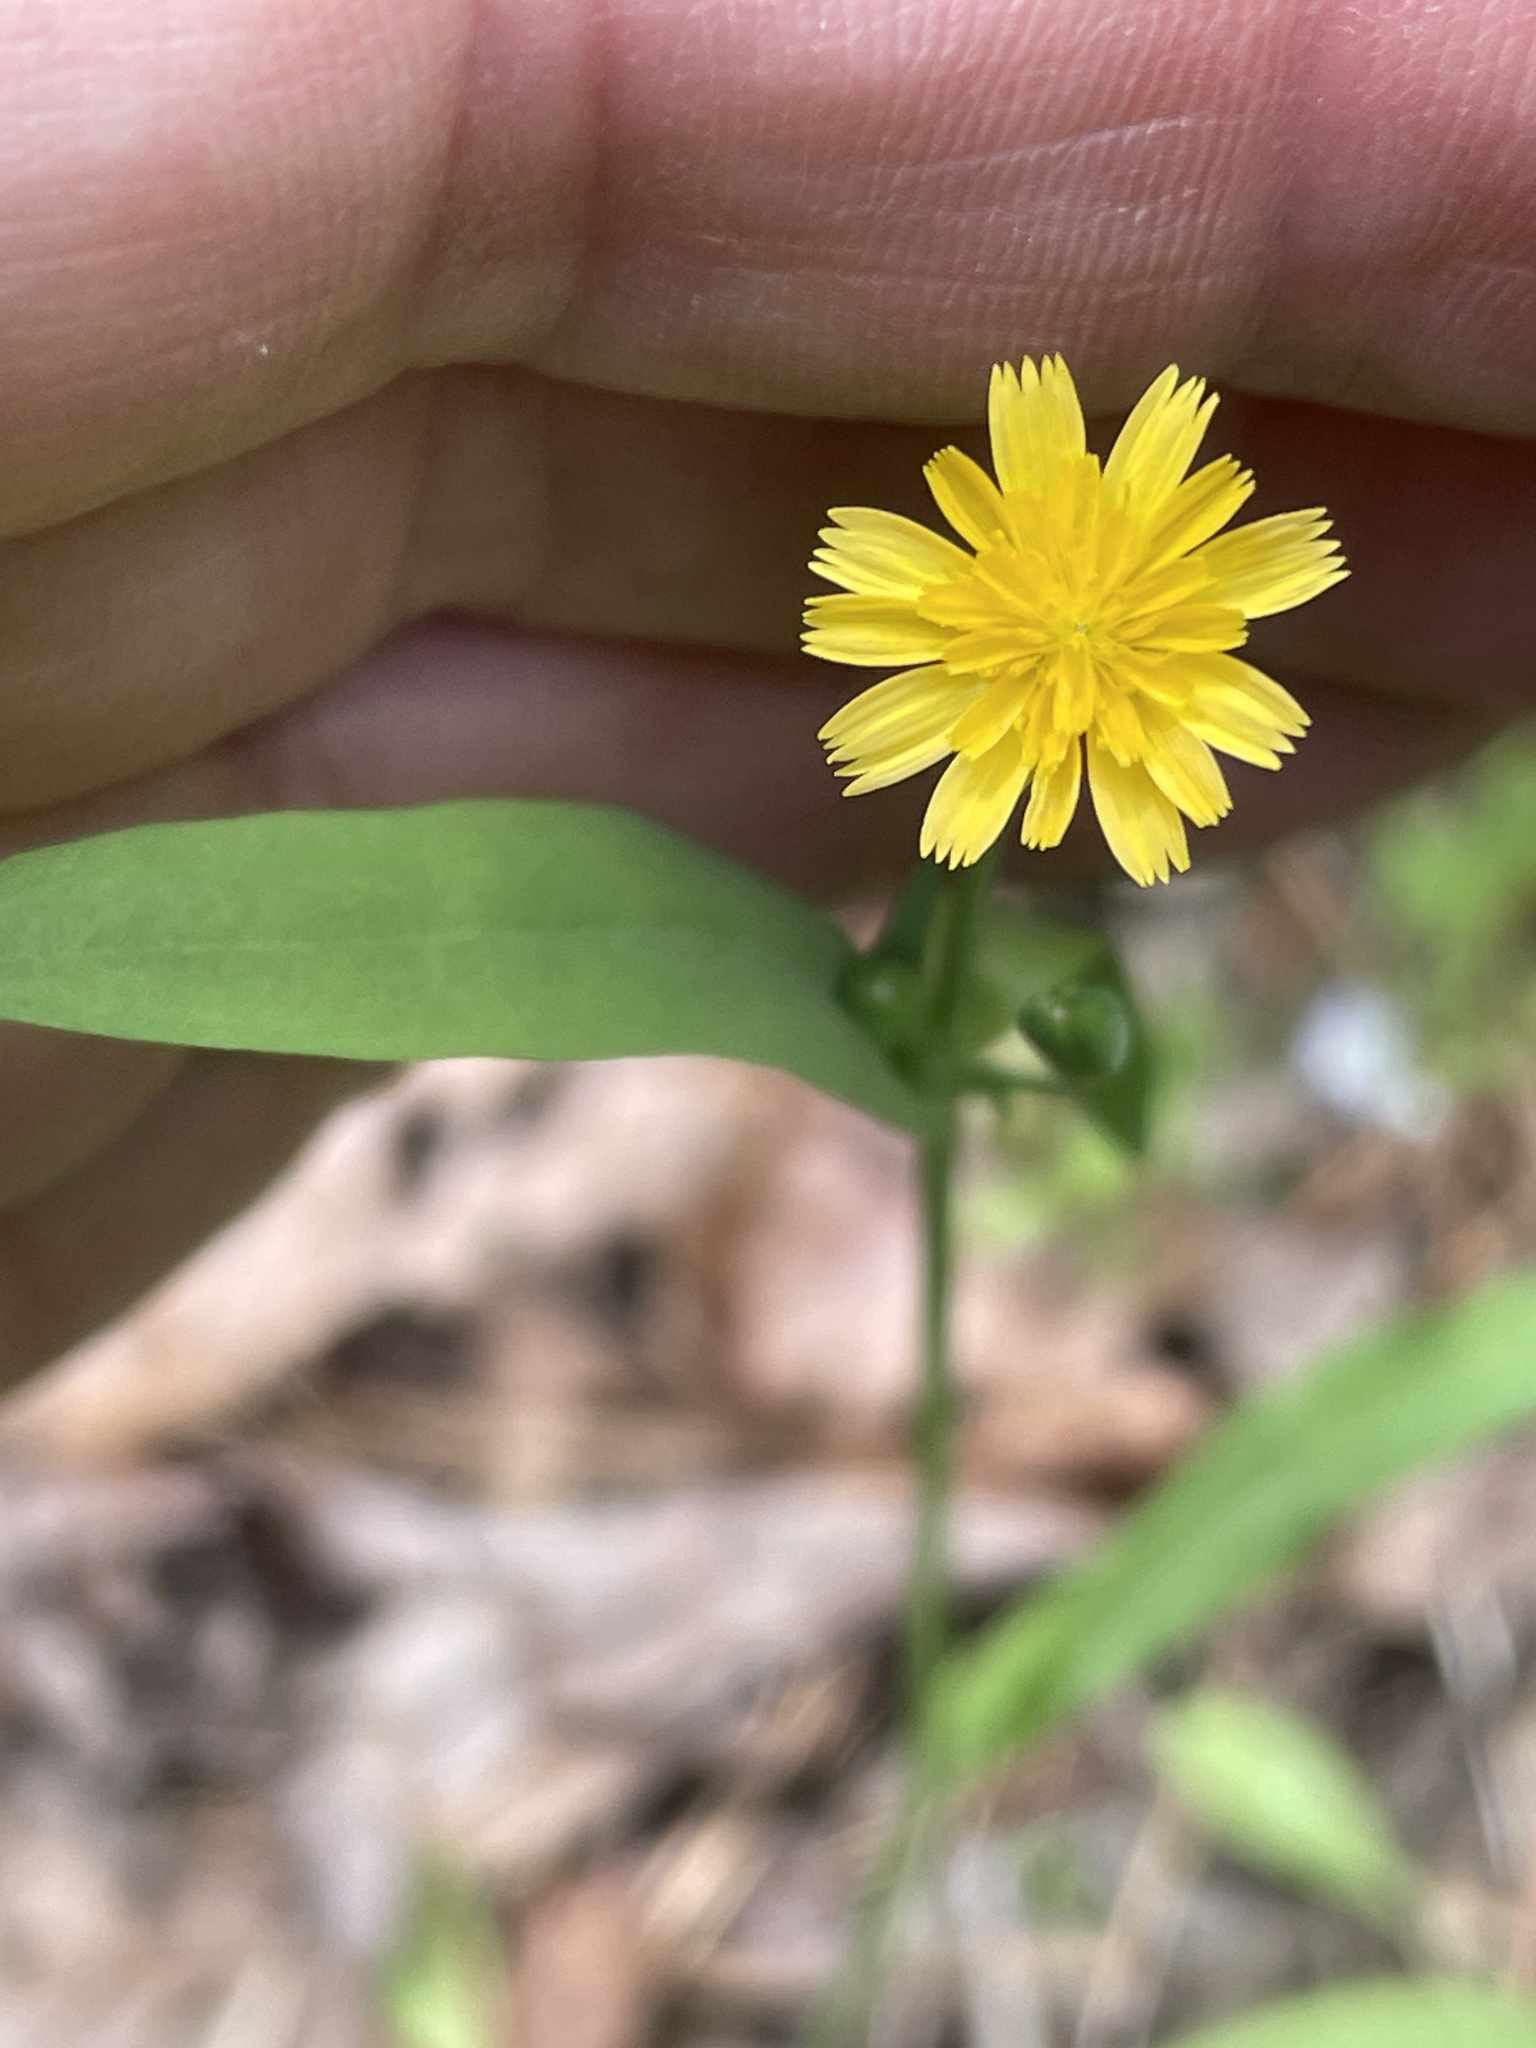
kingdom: Plantae
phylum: Tracheophyta
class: Magnoliopsida
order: Asterales
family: Asteraceae
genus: Krigia
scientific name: Krigia cespitosa
